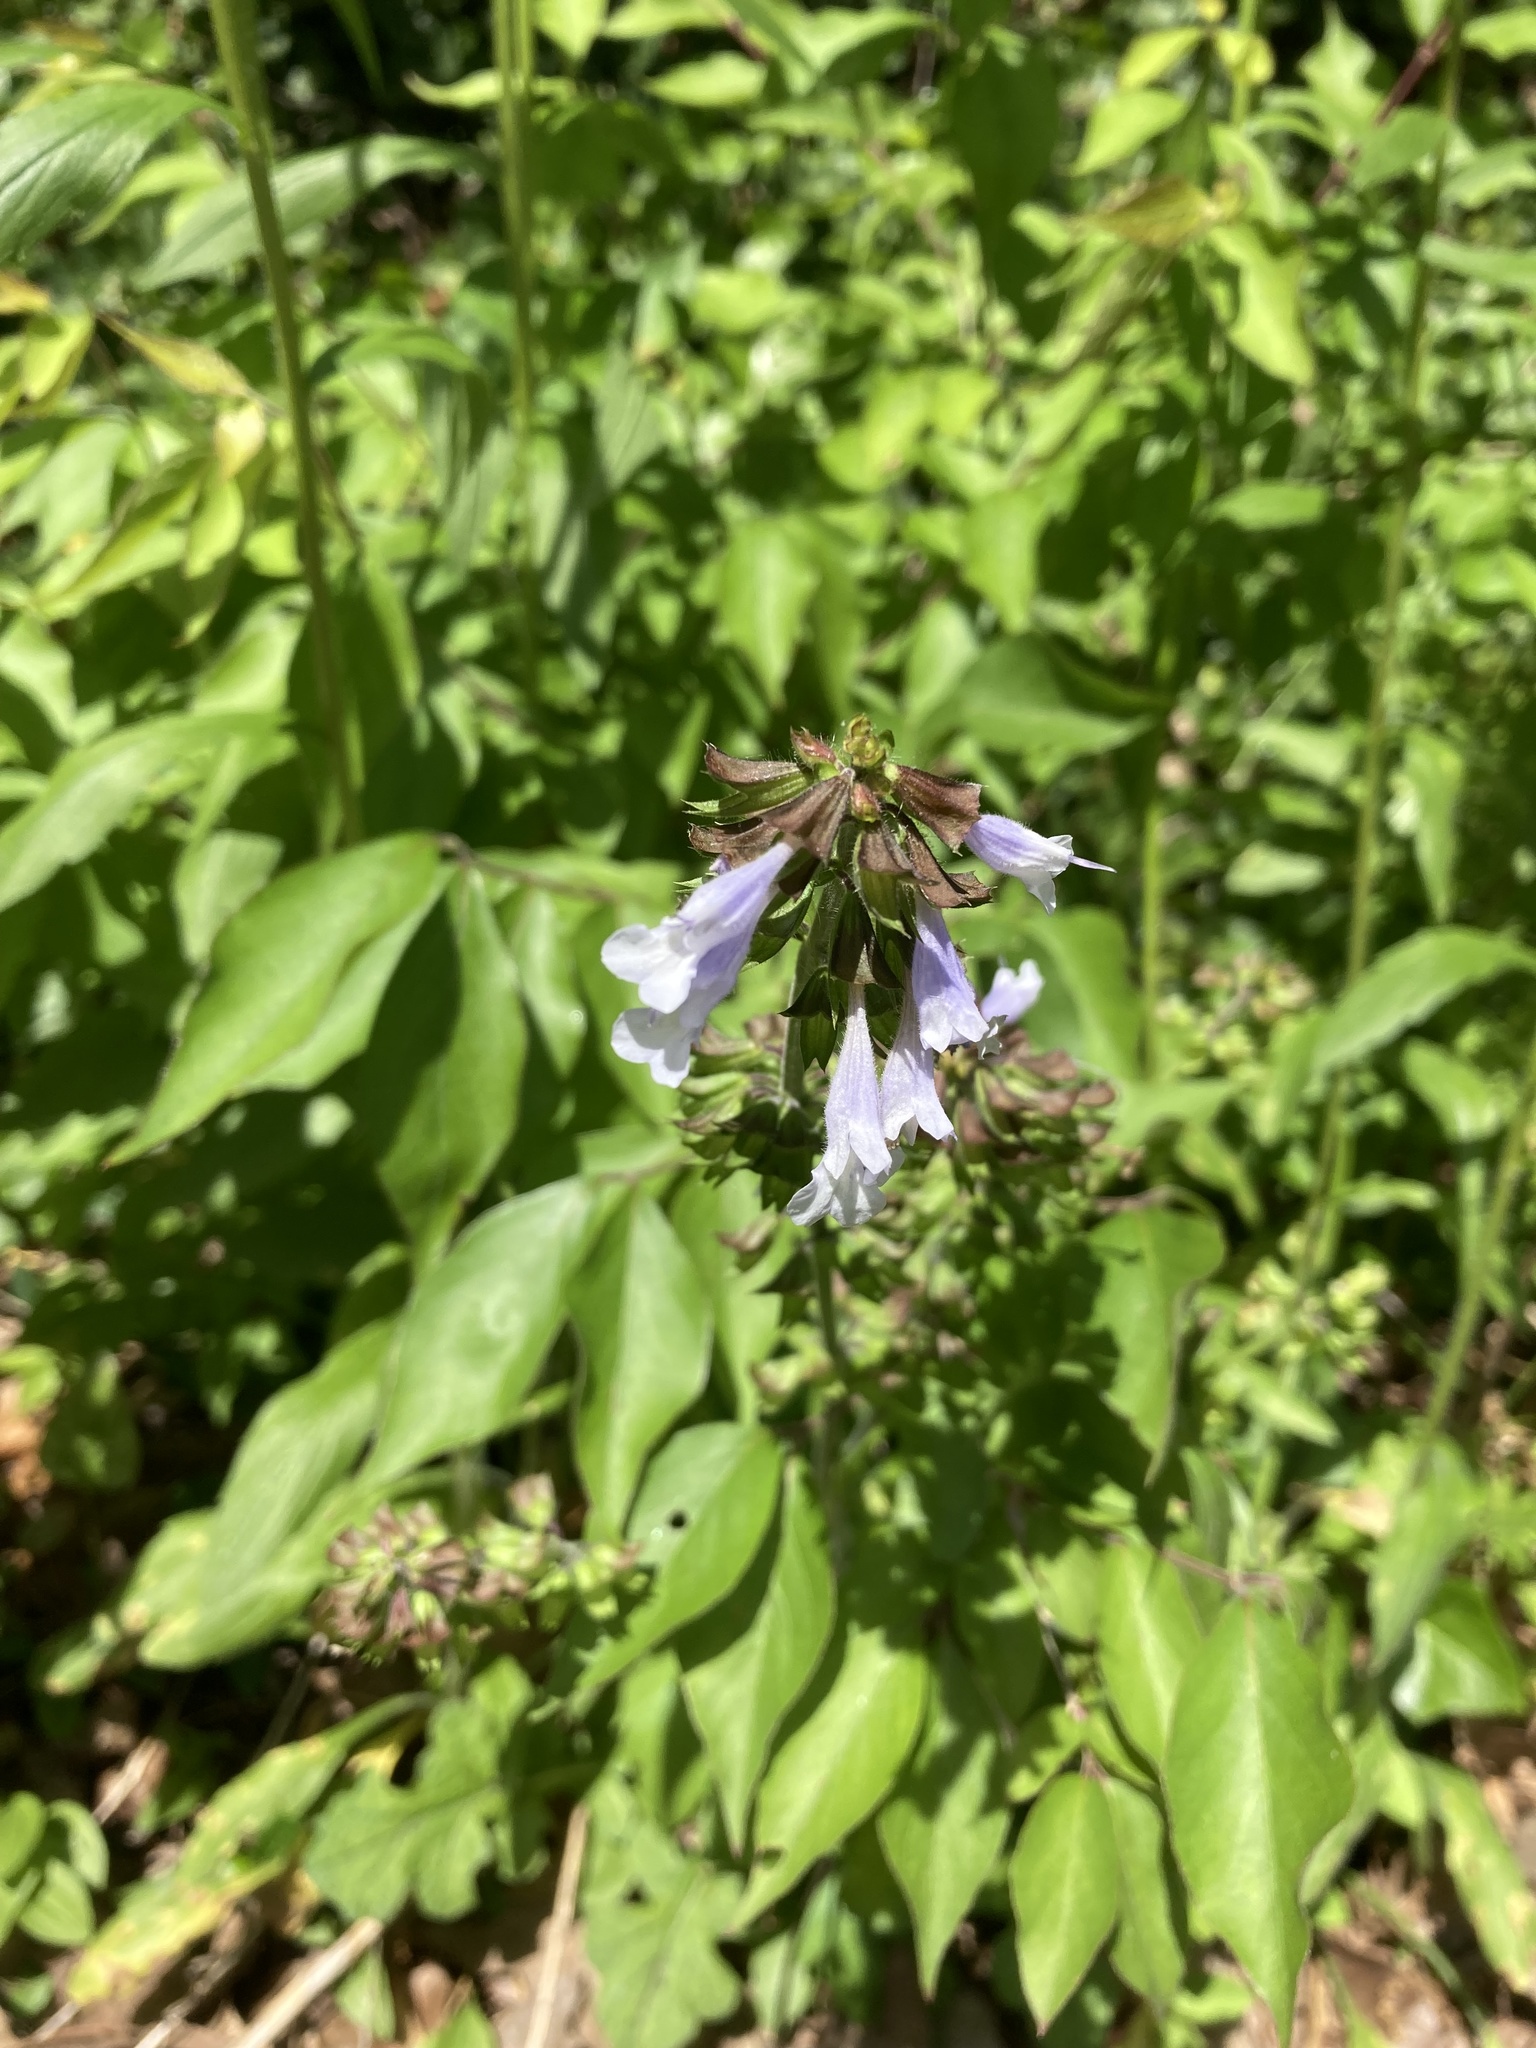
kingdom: Plantae
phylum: Tracheophyta
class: Magnoliopsida
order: Lamiales
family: Lamiaceae
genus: Salvia
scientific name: Salvia lyrata
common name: Cancerweed
